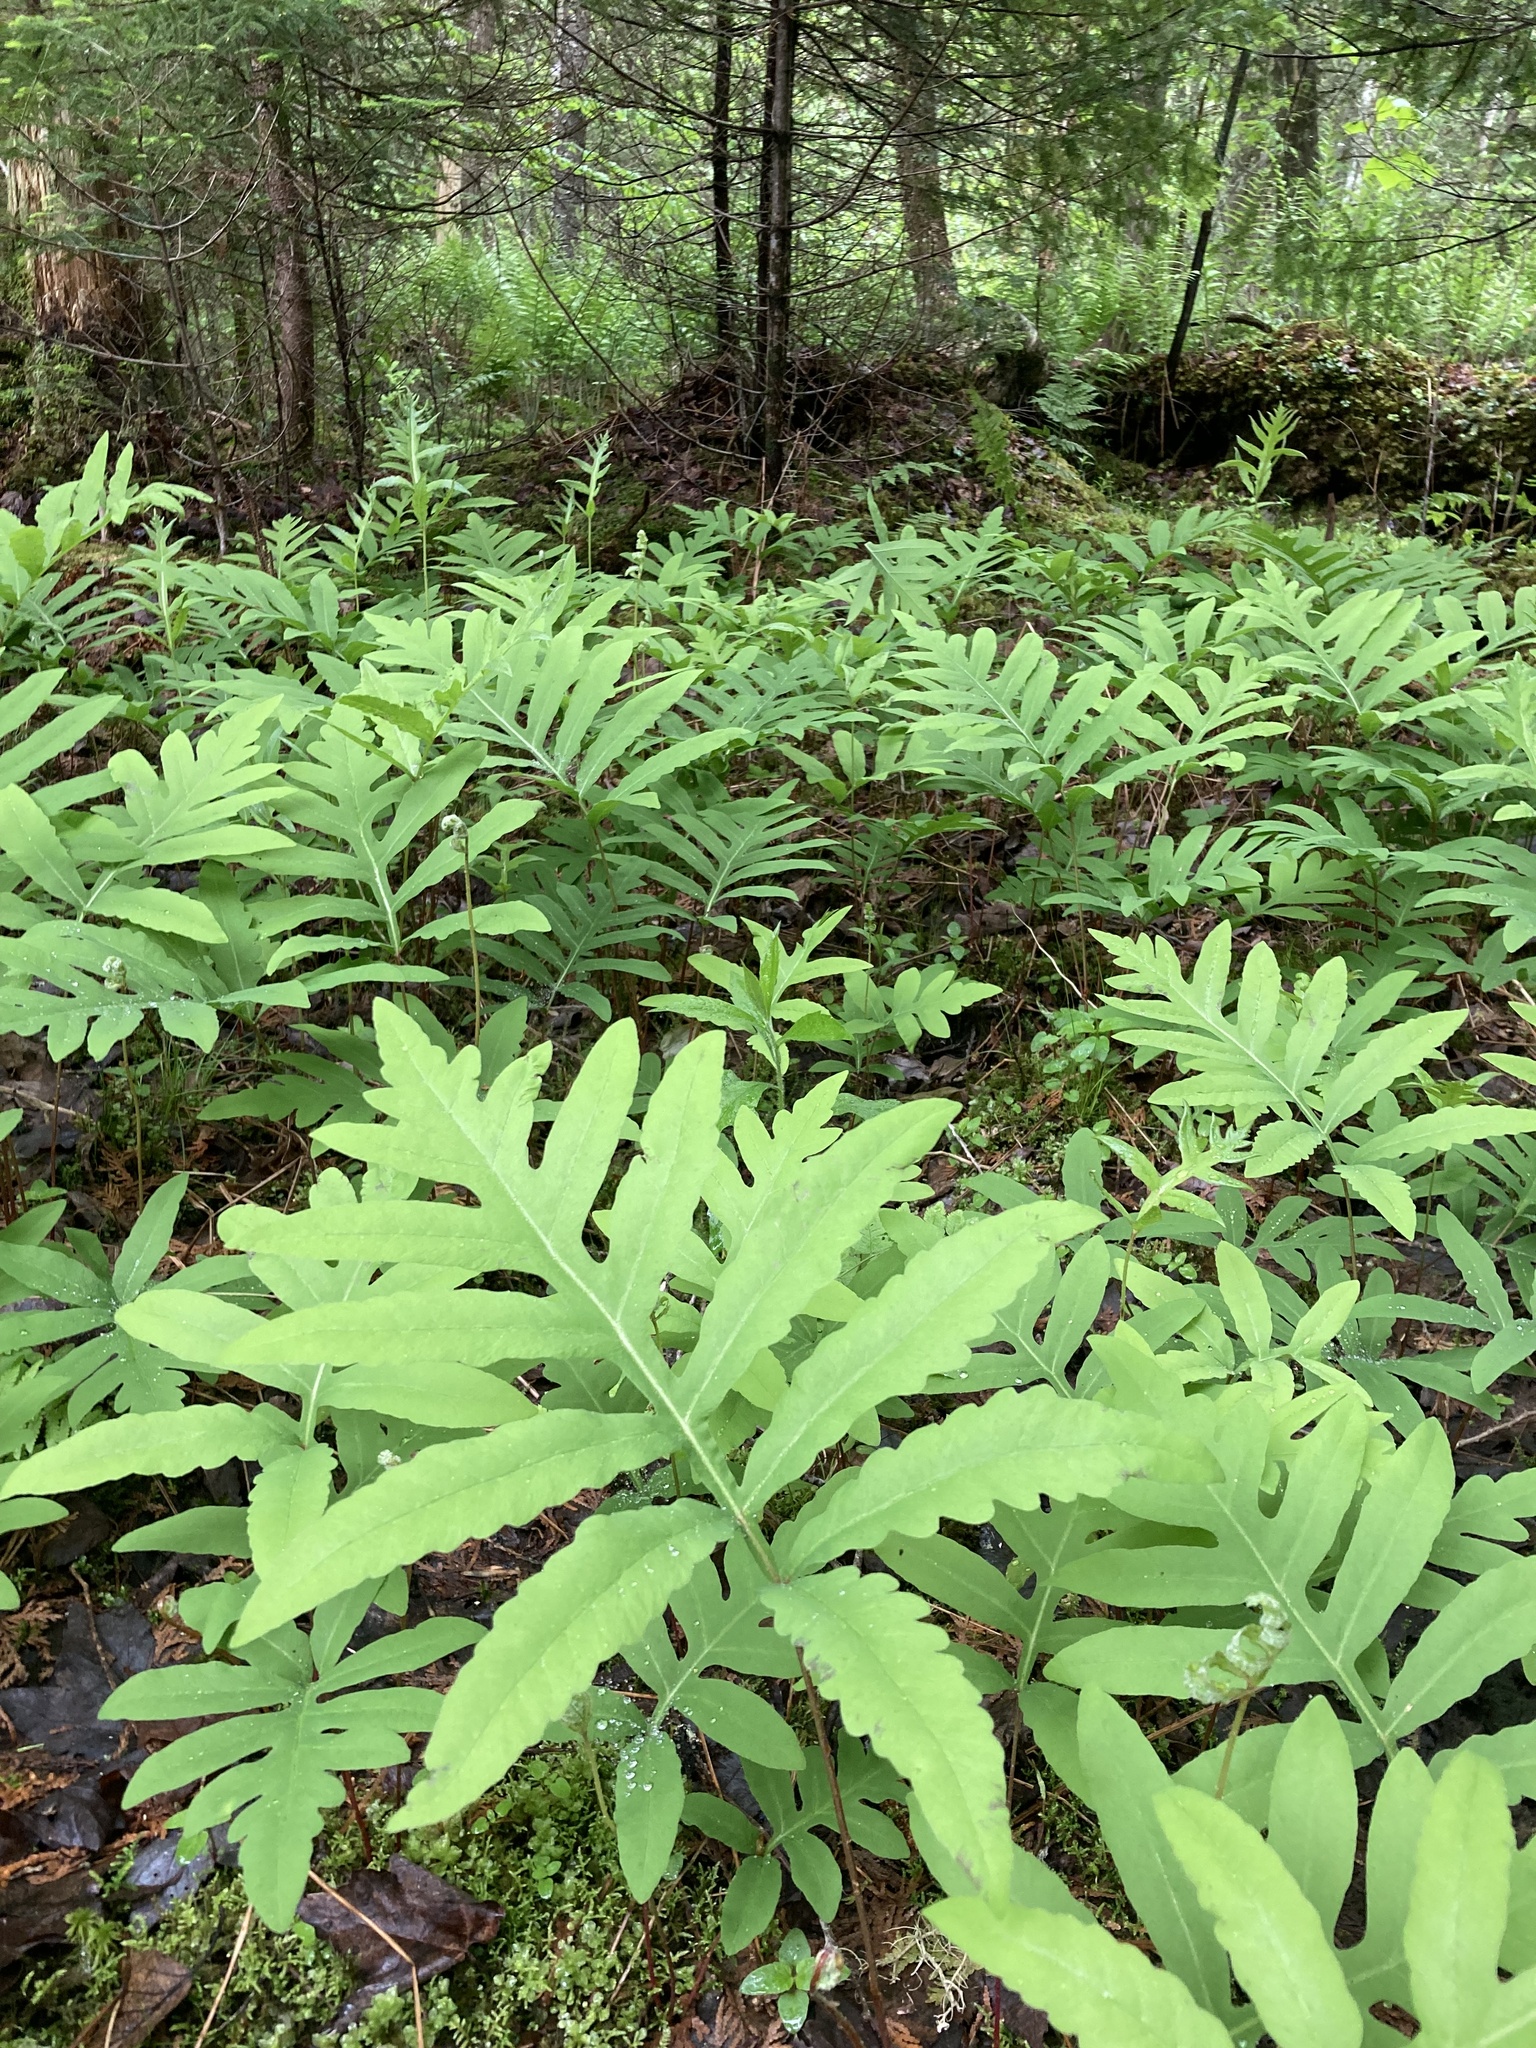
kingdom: Plantae
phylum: Tracheophyta
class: Polypodiopsida
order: Polypodiales
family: Onocleaceae
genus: Onoclea
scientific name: Onoclea sensibilis
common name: Sensitive fern
